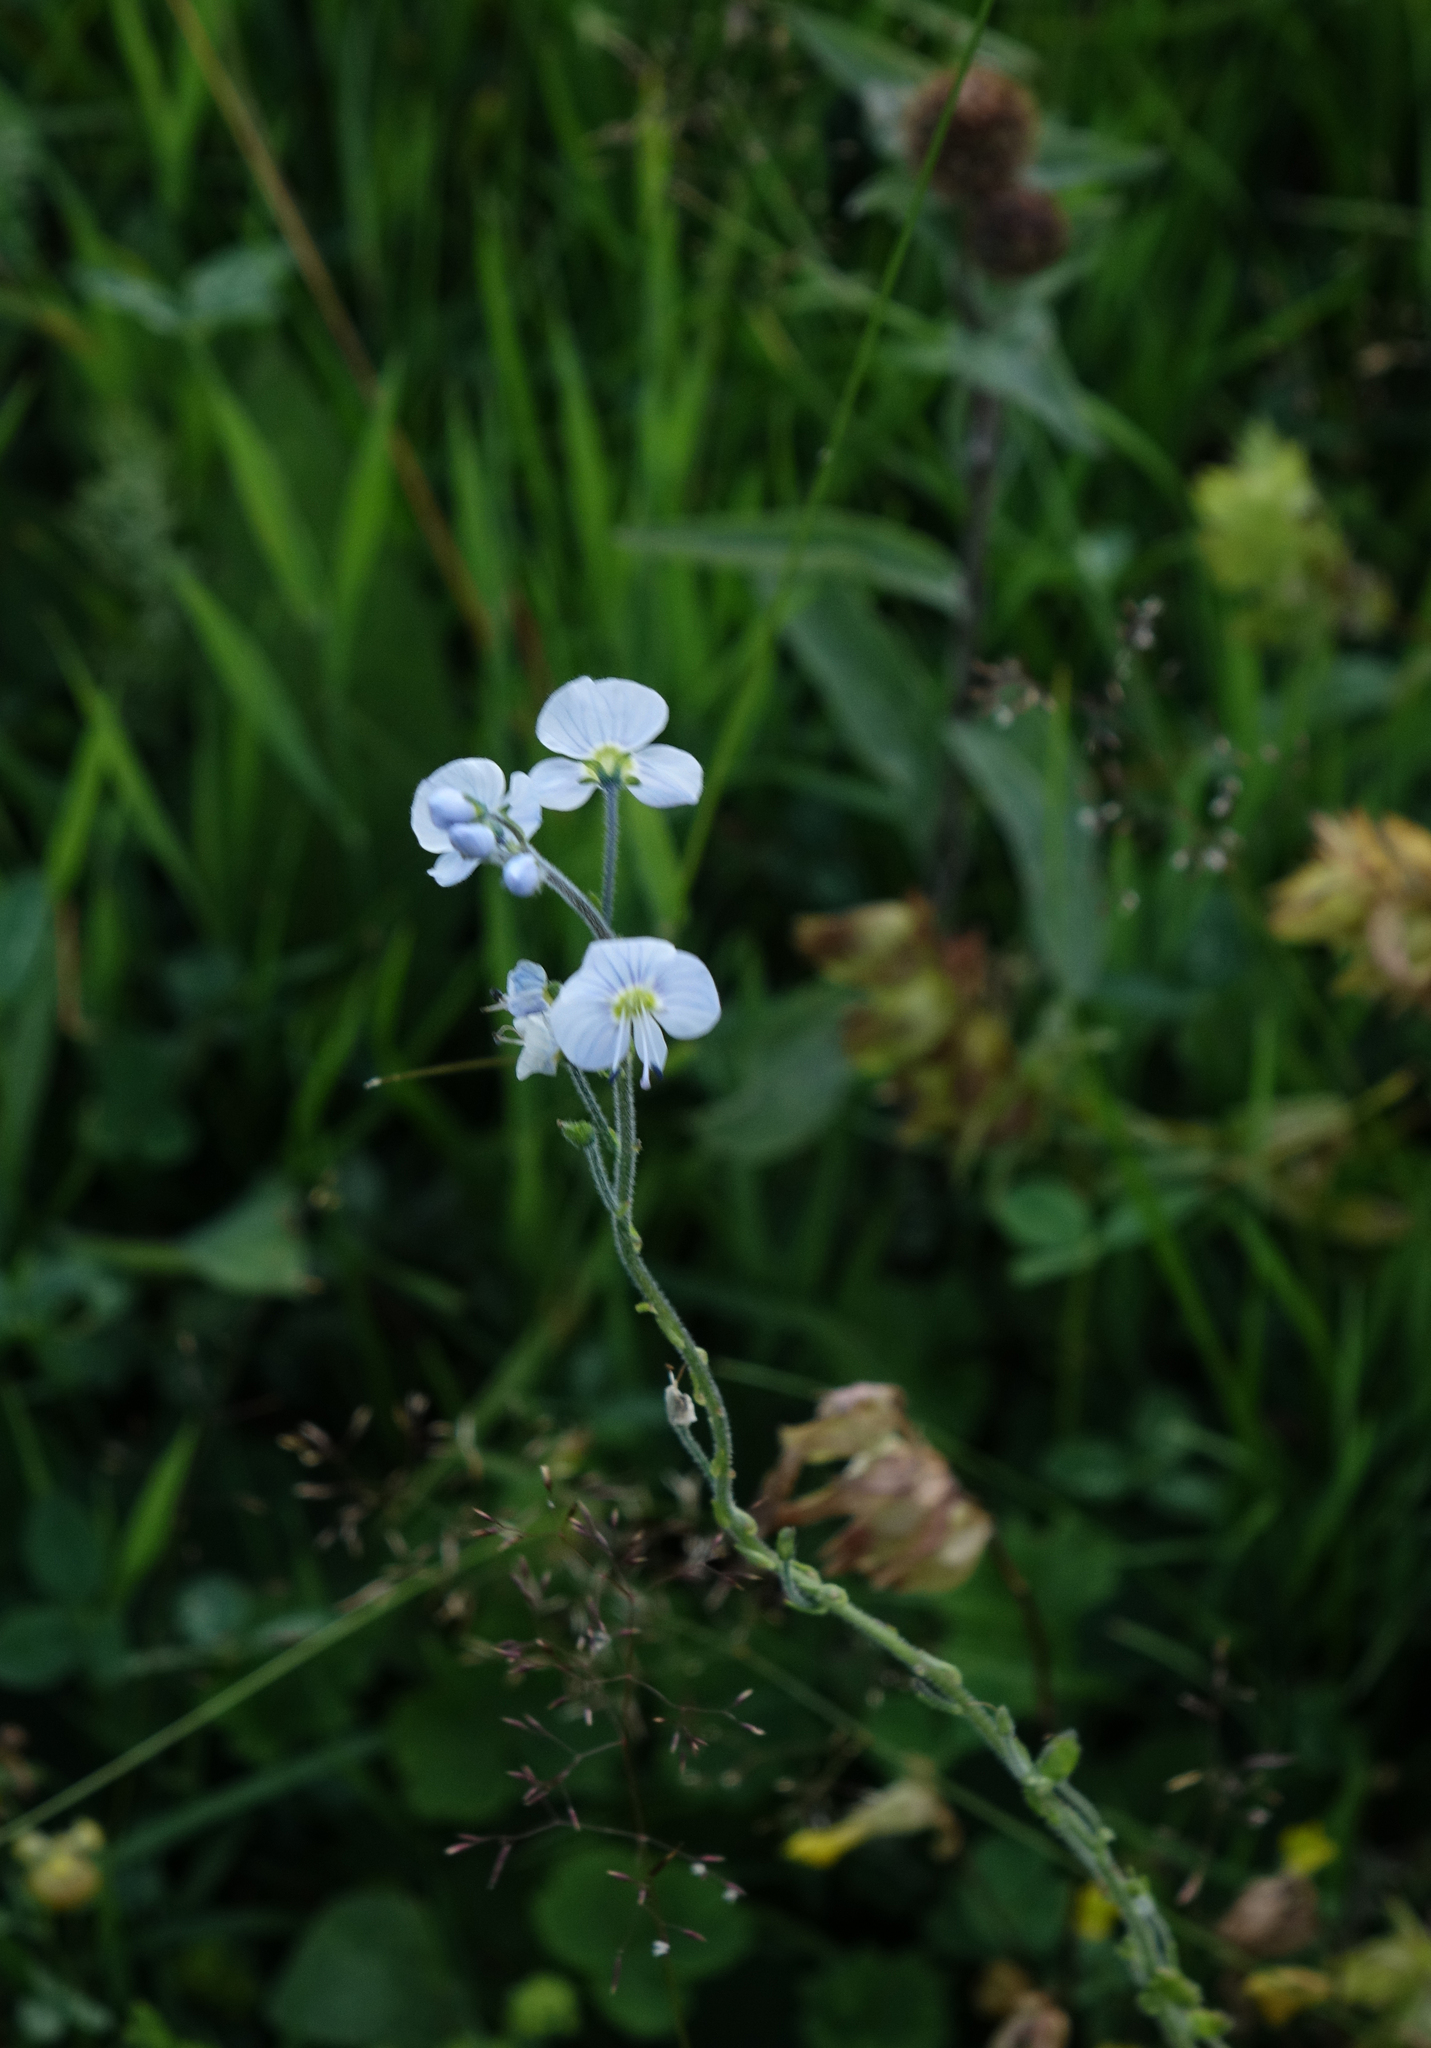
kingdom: Plantae
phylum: Tracheophyta
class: Magnoliopsida
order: Lamiales
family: Plantaginaceae
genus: Veronica
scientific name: Veronica gentianoides
